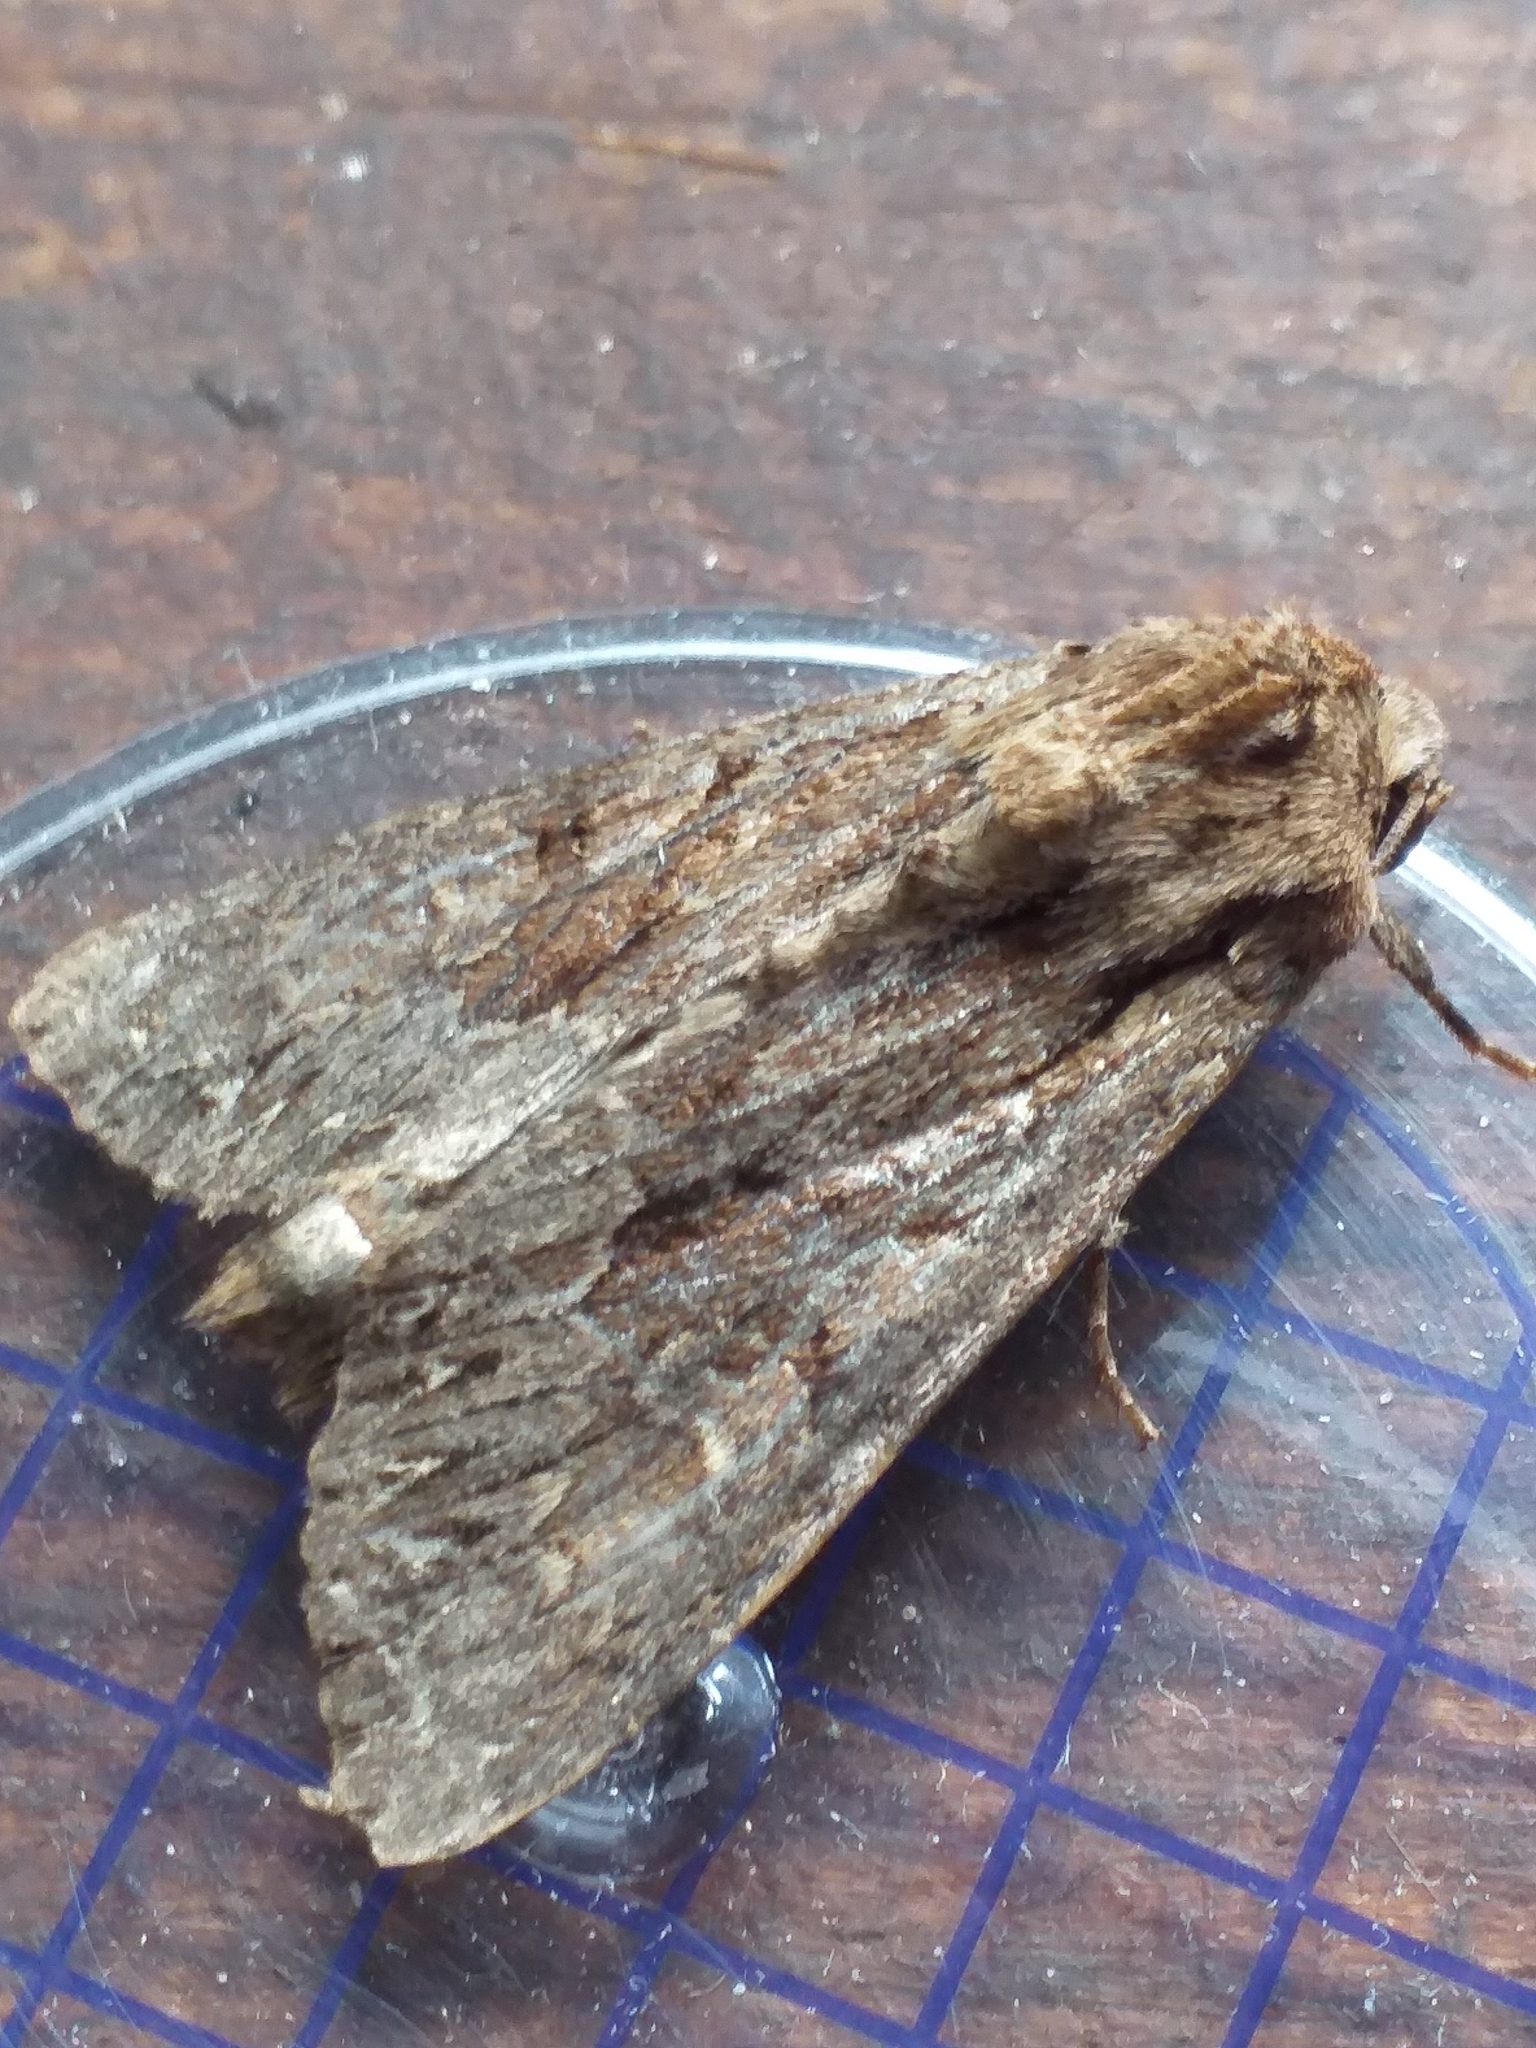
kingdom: Animalia
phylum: Arthropoda
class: Insecta
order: Lepidoptera
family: Noctuidae
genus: Apamea
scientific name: Apamea monoglypha
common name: Dark arches
